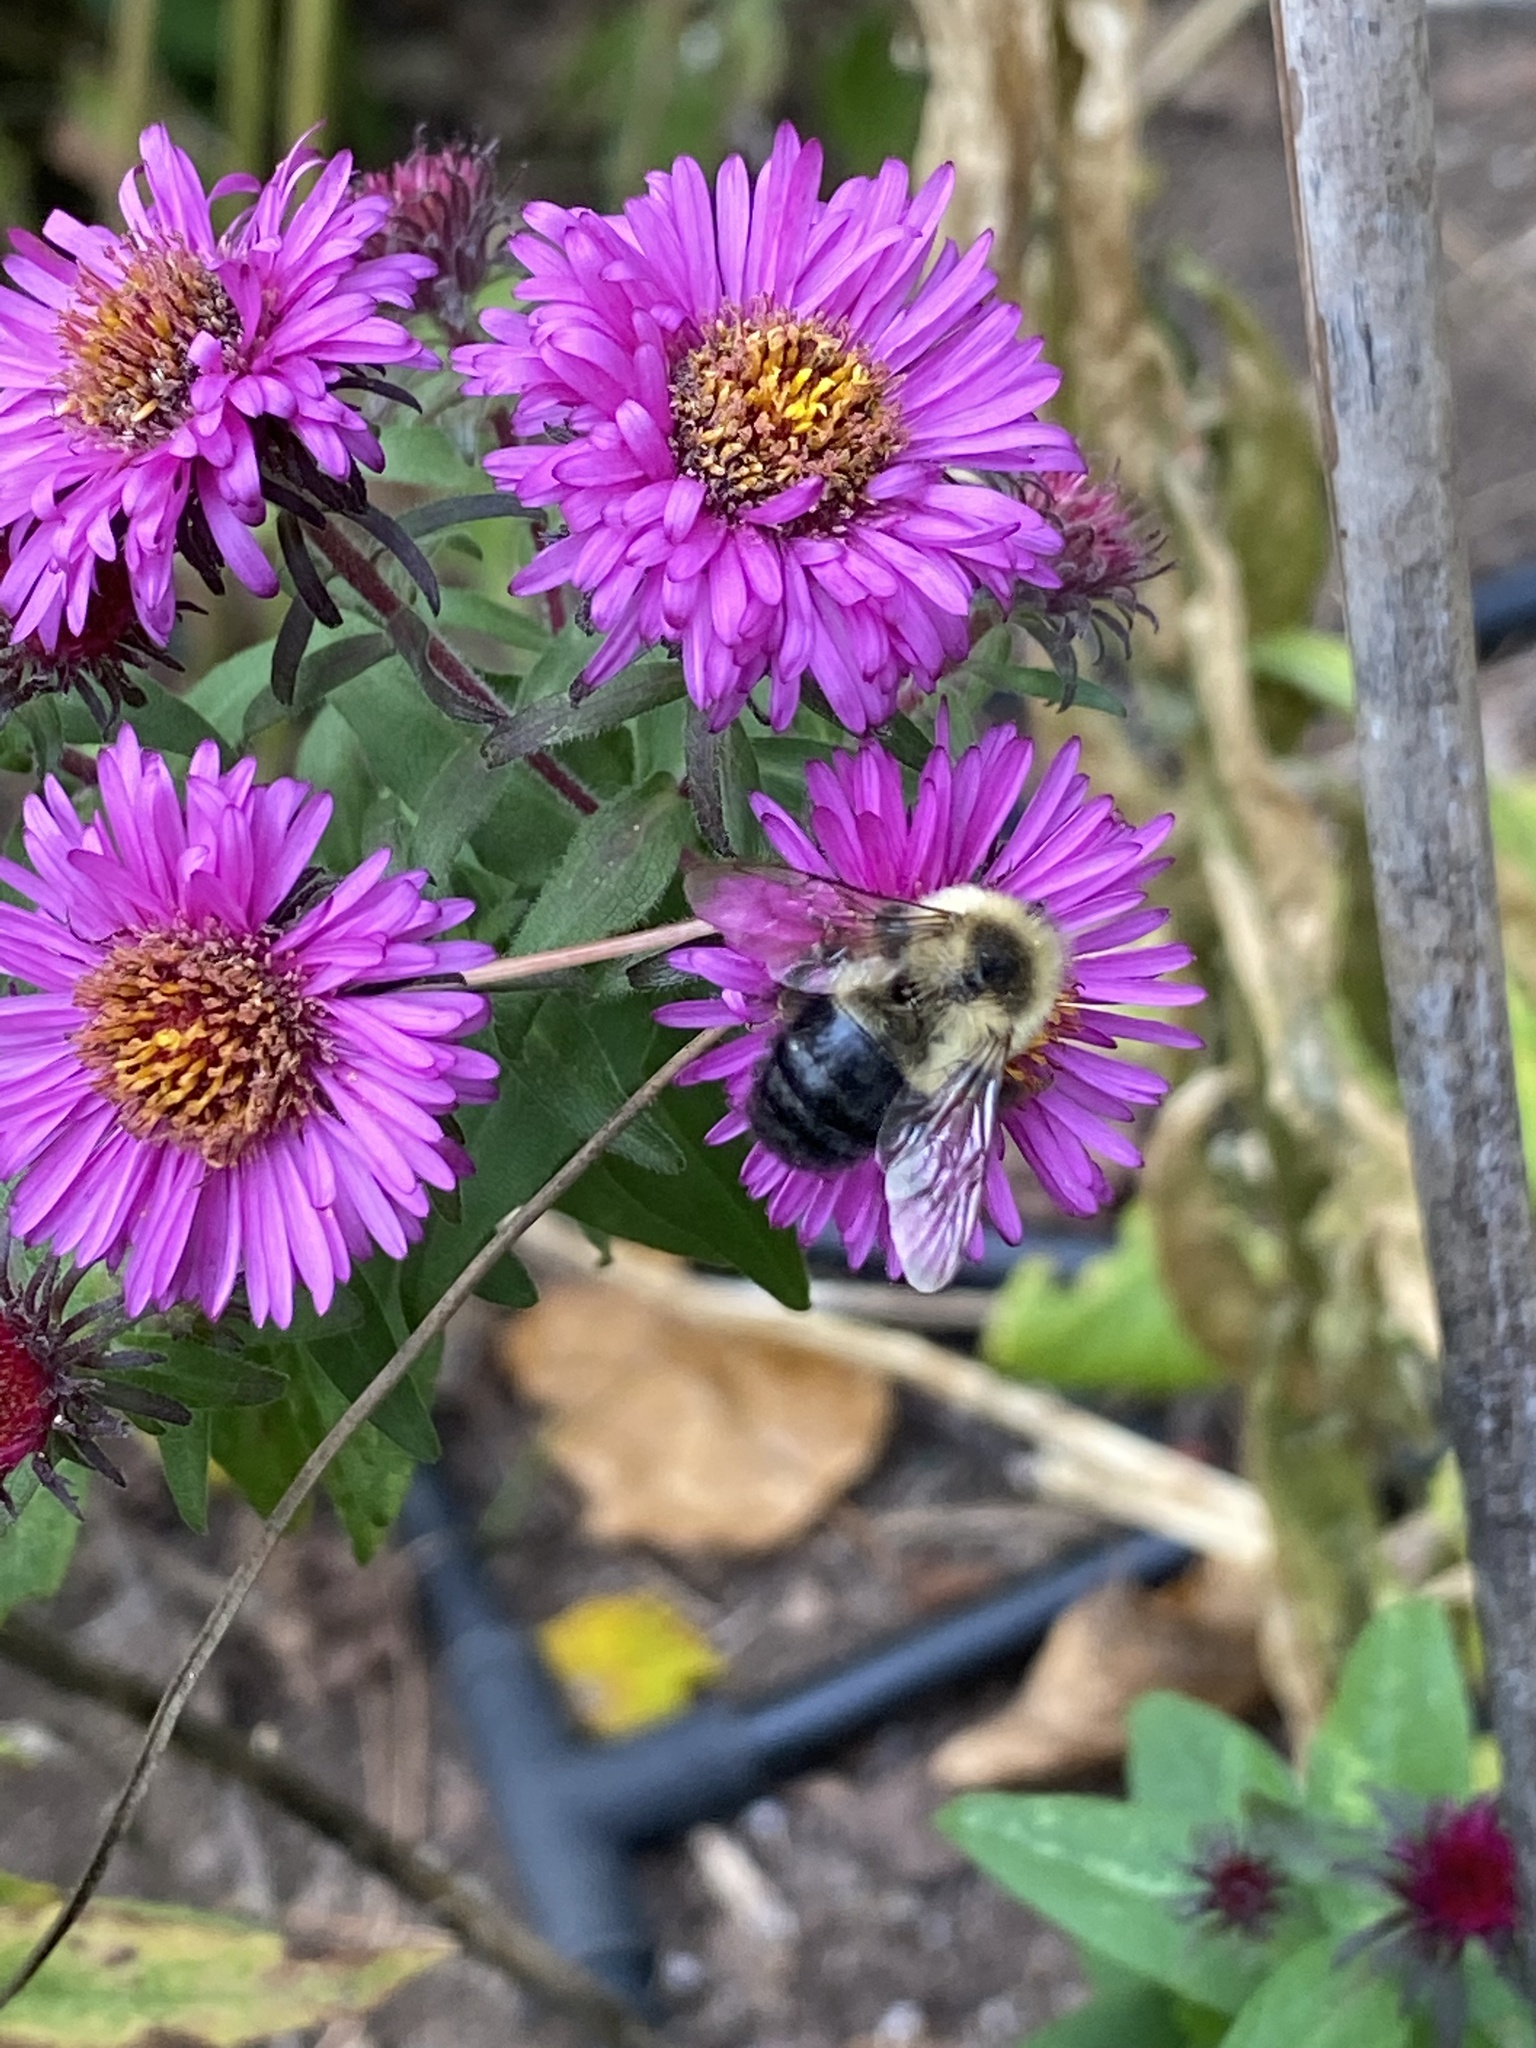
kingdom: Animalia
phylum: Arthropoda
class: Insecta
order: Hymenoptera
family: Apidae
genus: Bombus
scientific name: Bombus impatiens
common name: Common eastern bumble bee
